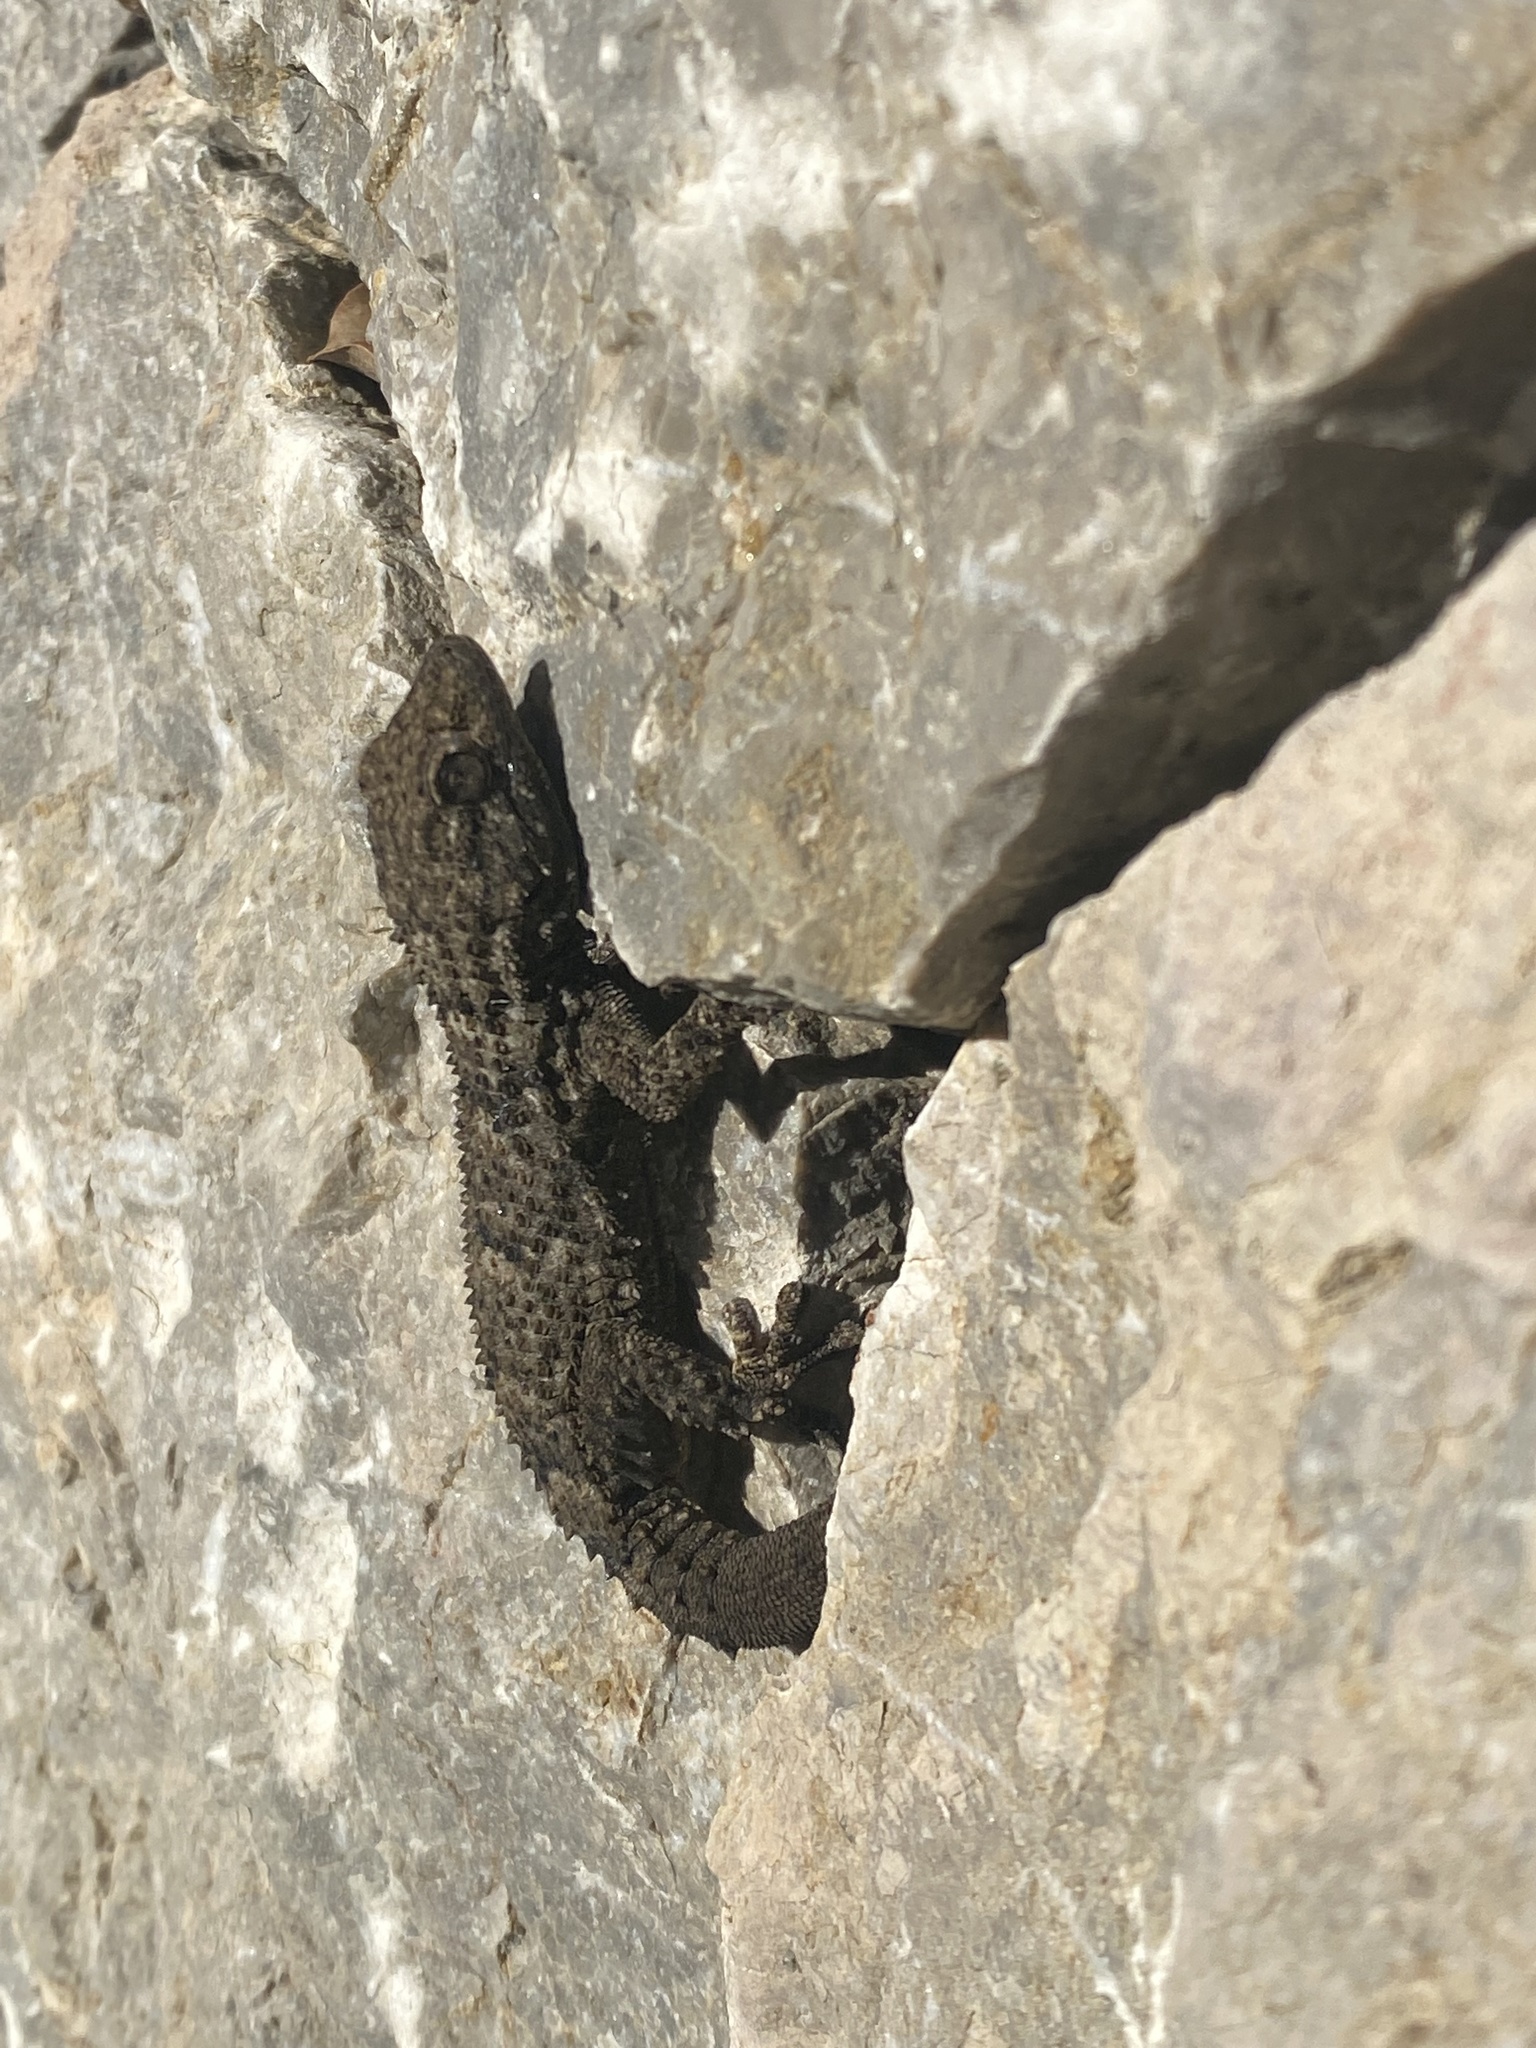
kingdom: Animalia
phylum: Chordata
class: Squamata
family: Phyllodactylidae
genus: Tarentola
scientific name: Tarentola mauritanica
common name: Moorish gecko
